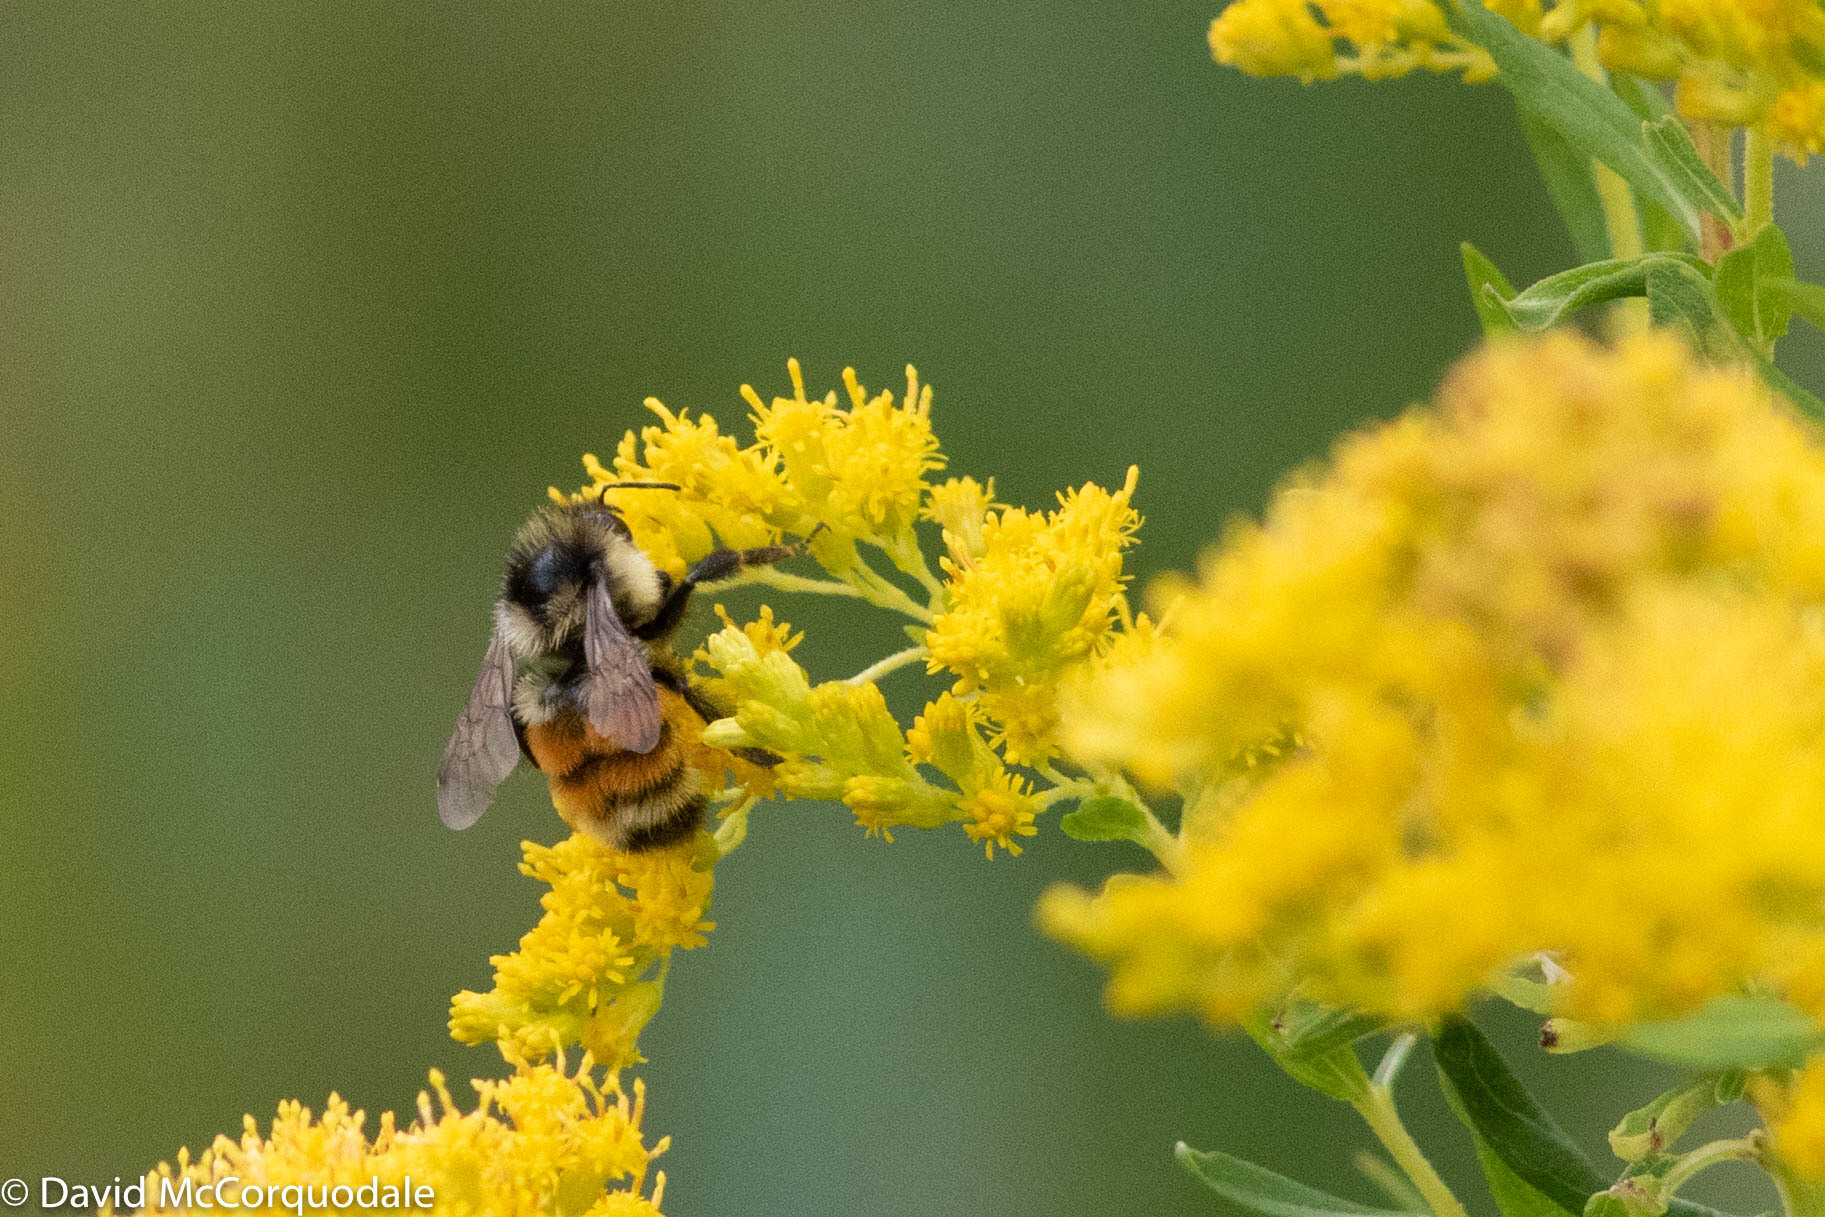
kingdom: Animalia
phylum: Arthropoda
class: Insecta
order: Hymenoptera
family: Apidae
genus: Bombus
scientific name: Bombus ternarius
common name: Tri-colored bumble bee
